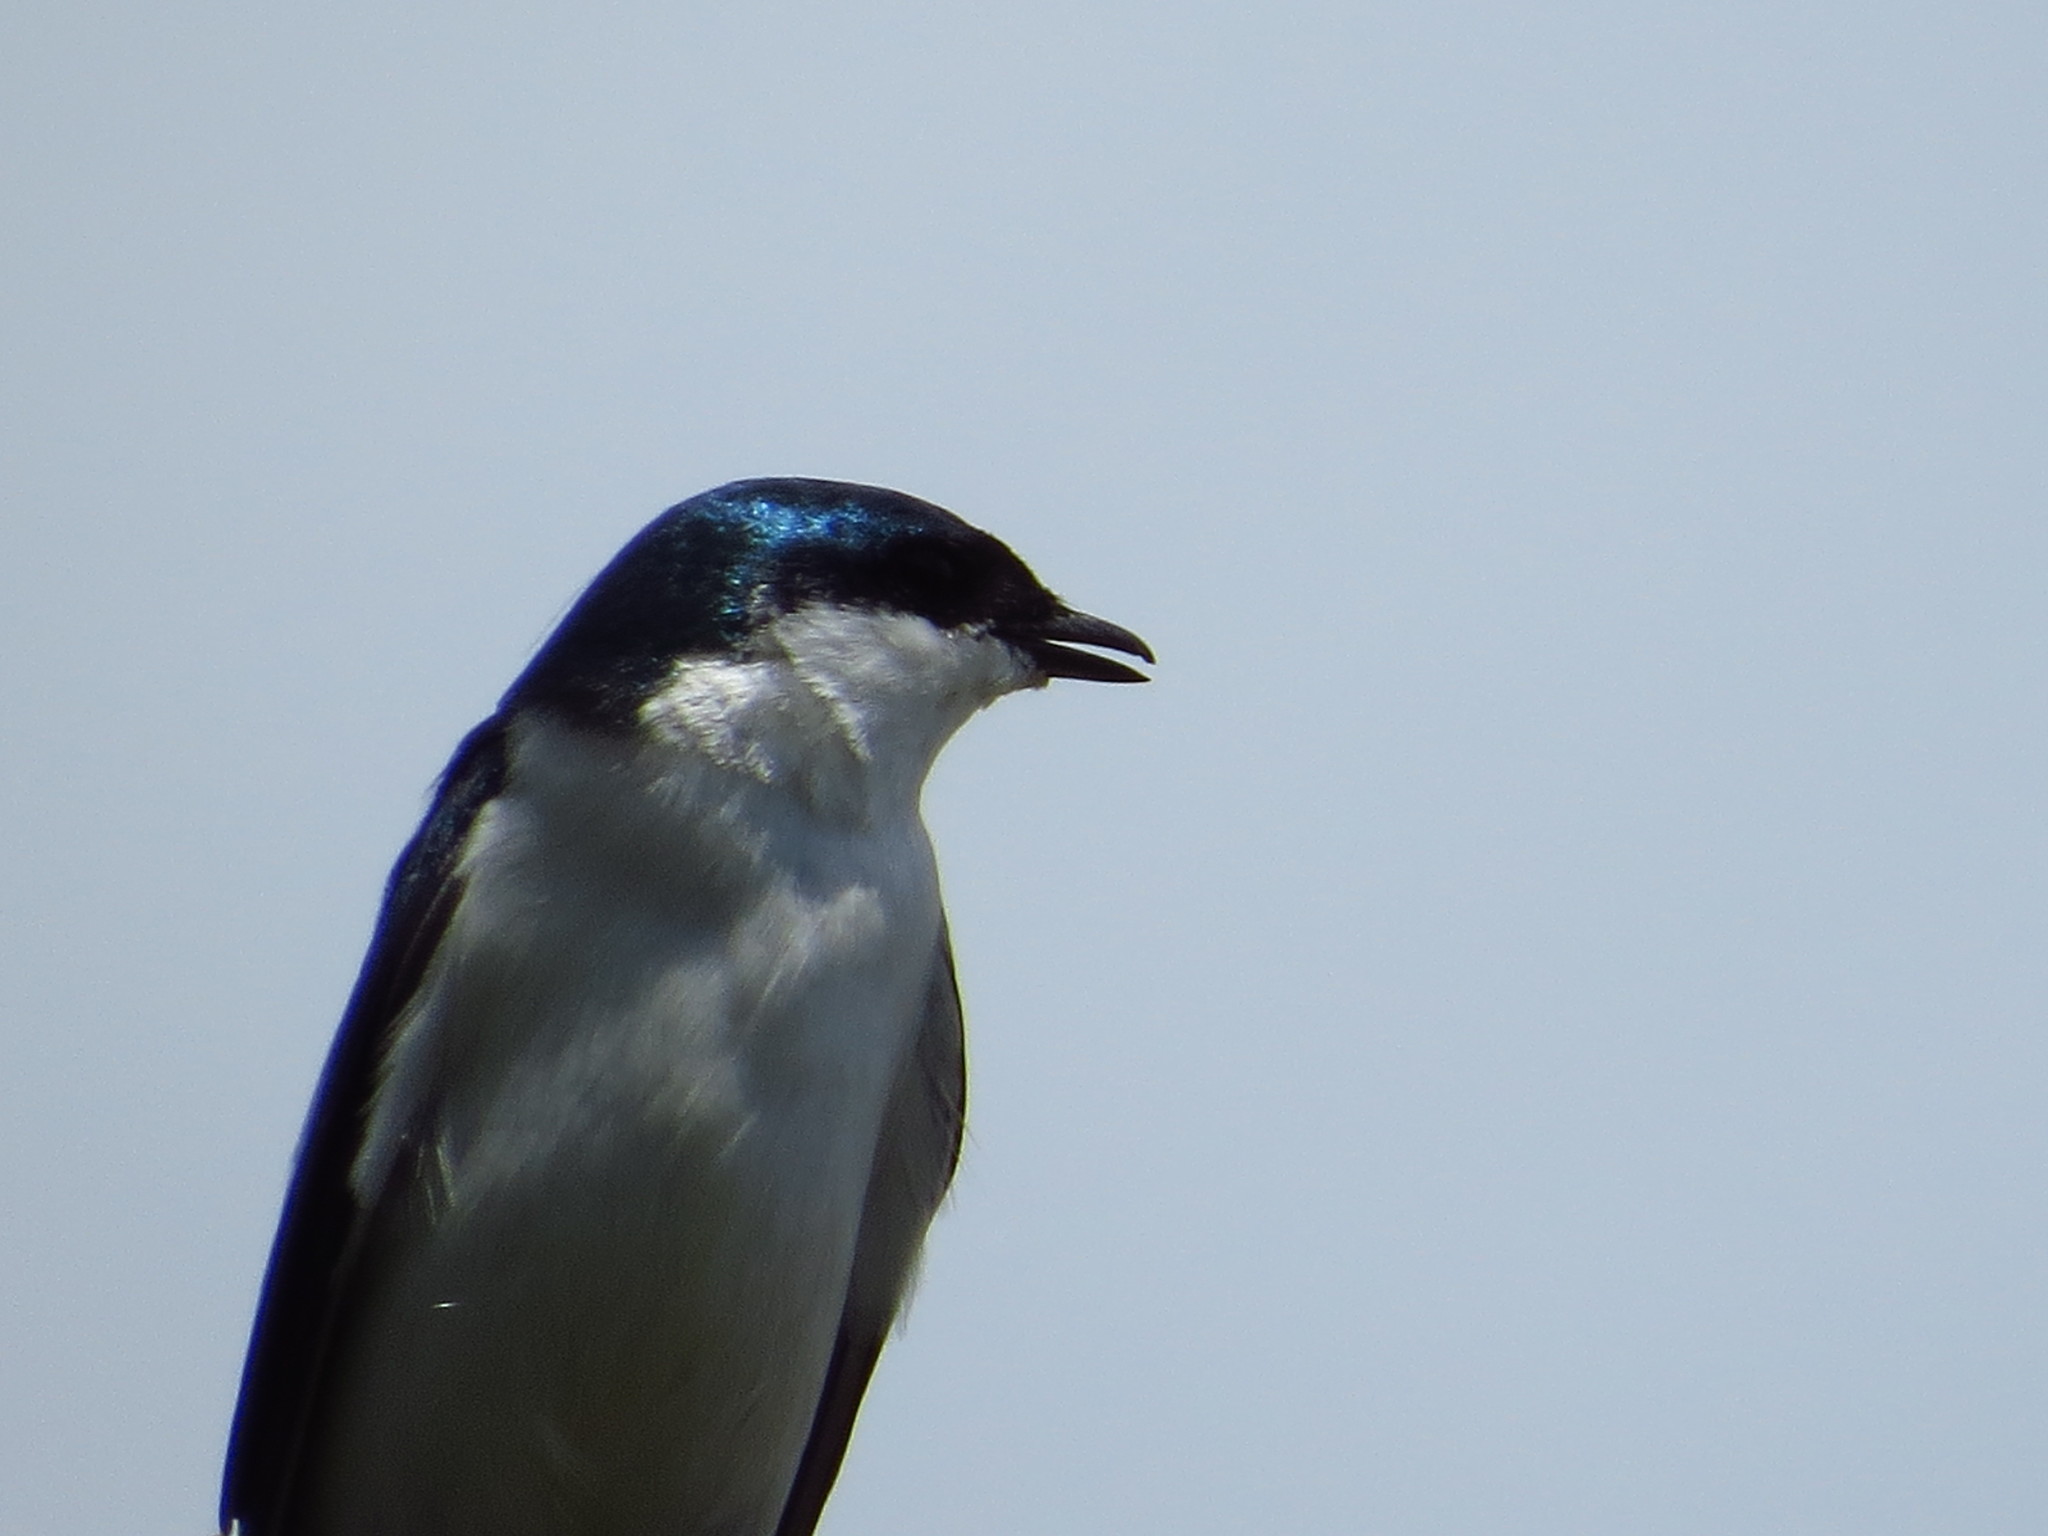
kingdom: Animalia
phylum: Chordata
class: Aves
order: Passeriformes
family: Hirundinidae
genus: Tachycineta
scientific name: Tachycineta albiventer
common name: White-winged swallow
